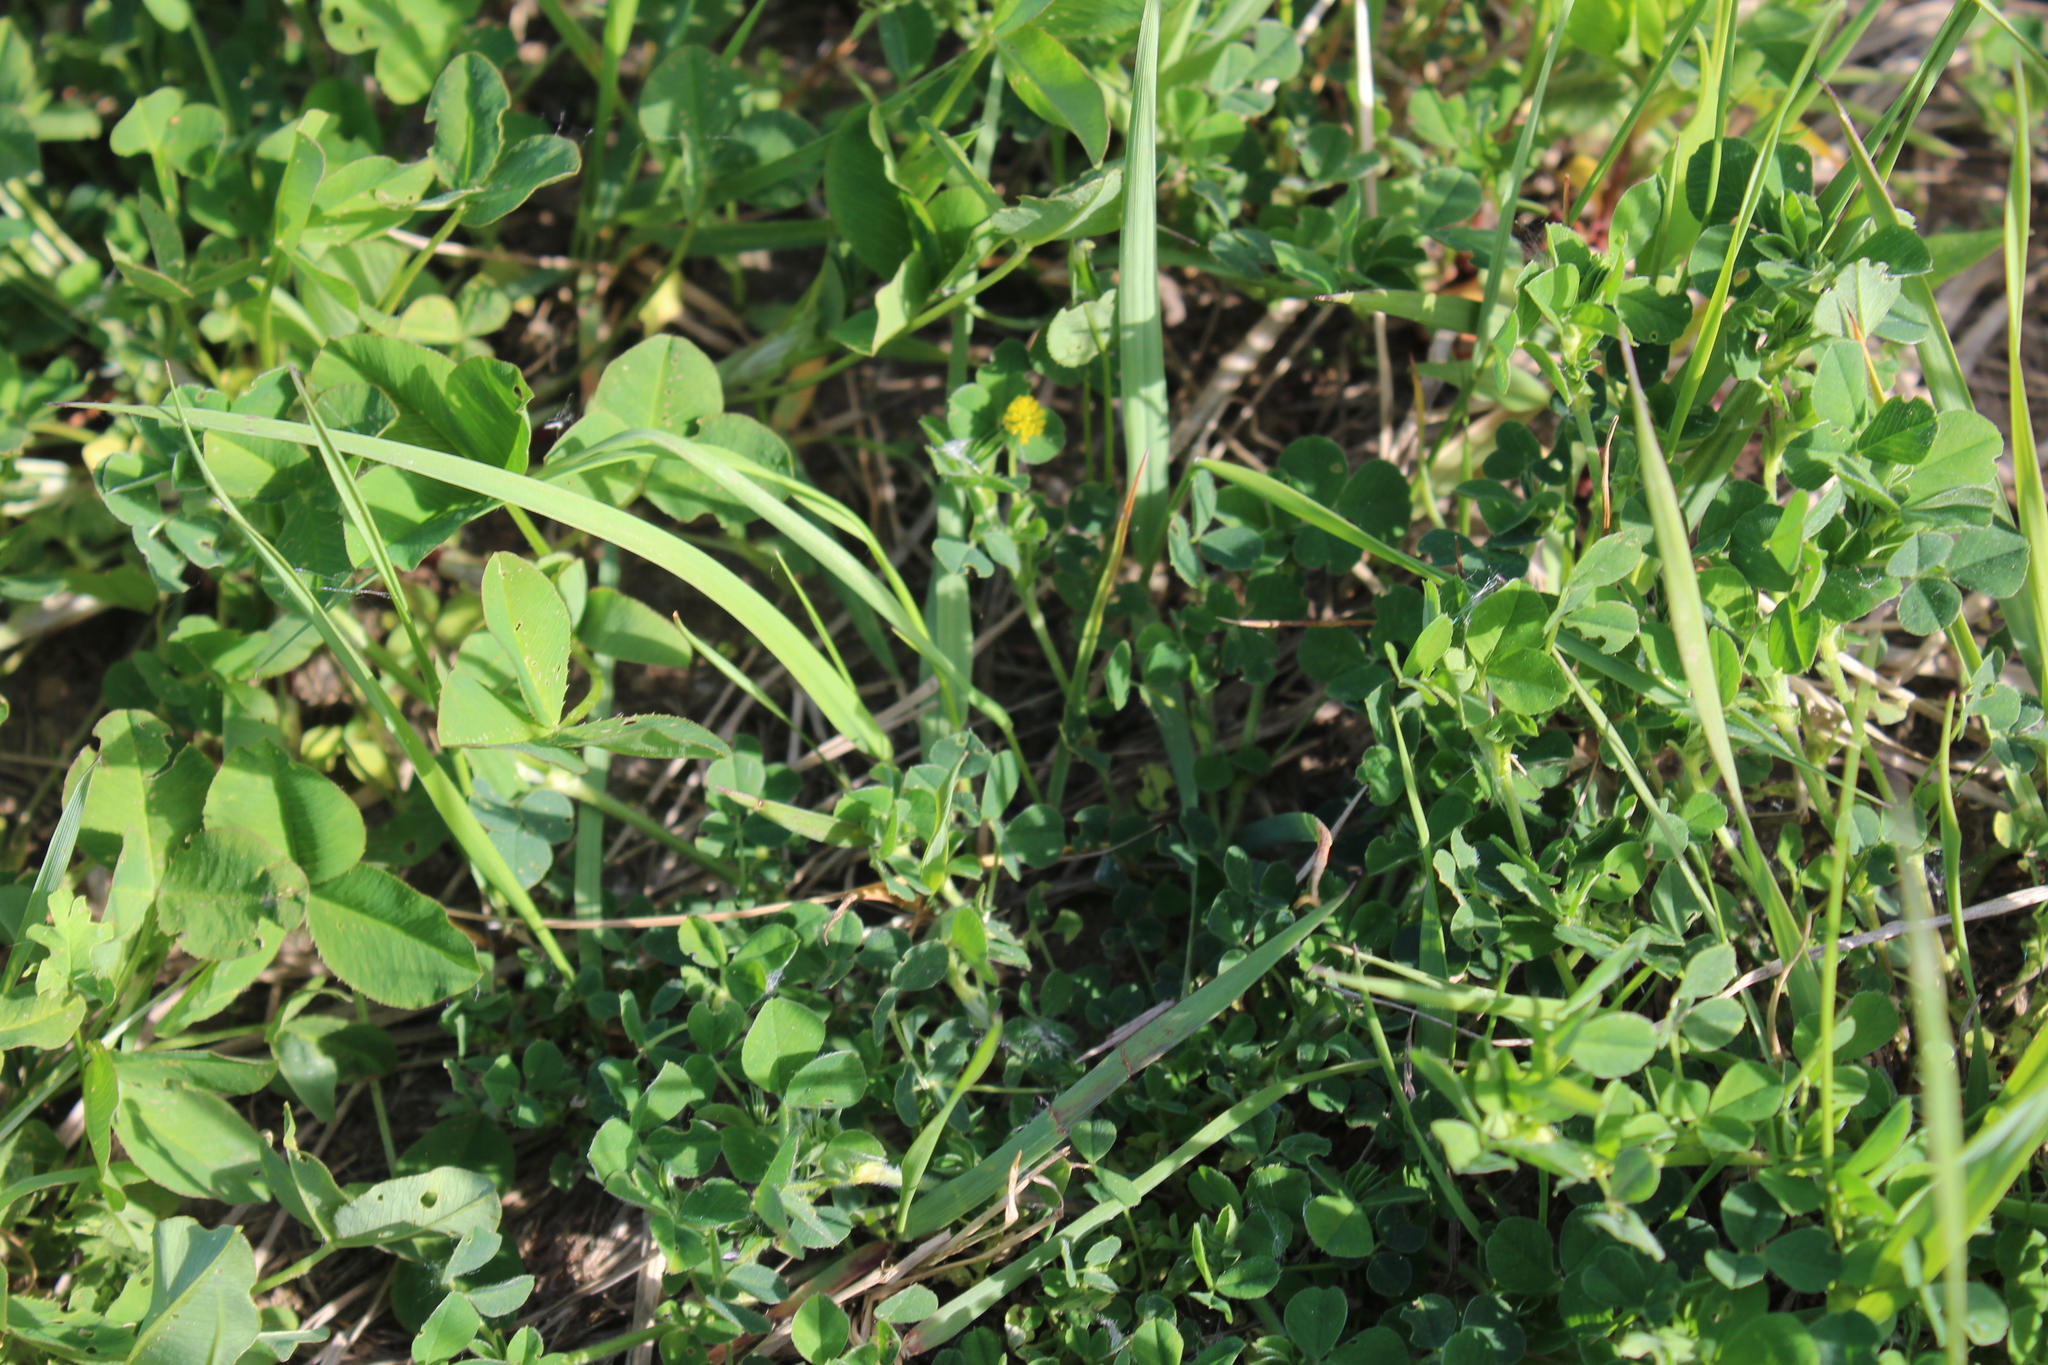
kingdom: Plantae
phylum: Tracheophyta
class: Magnoliopsida
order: Fabales
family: Fabaceae
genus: Medicago
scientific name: Medicago lupulina
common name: Black medick
